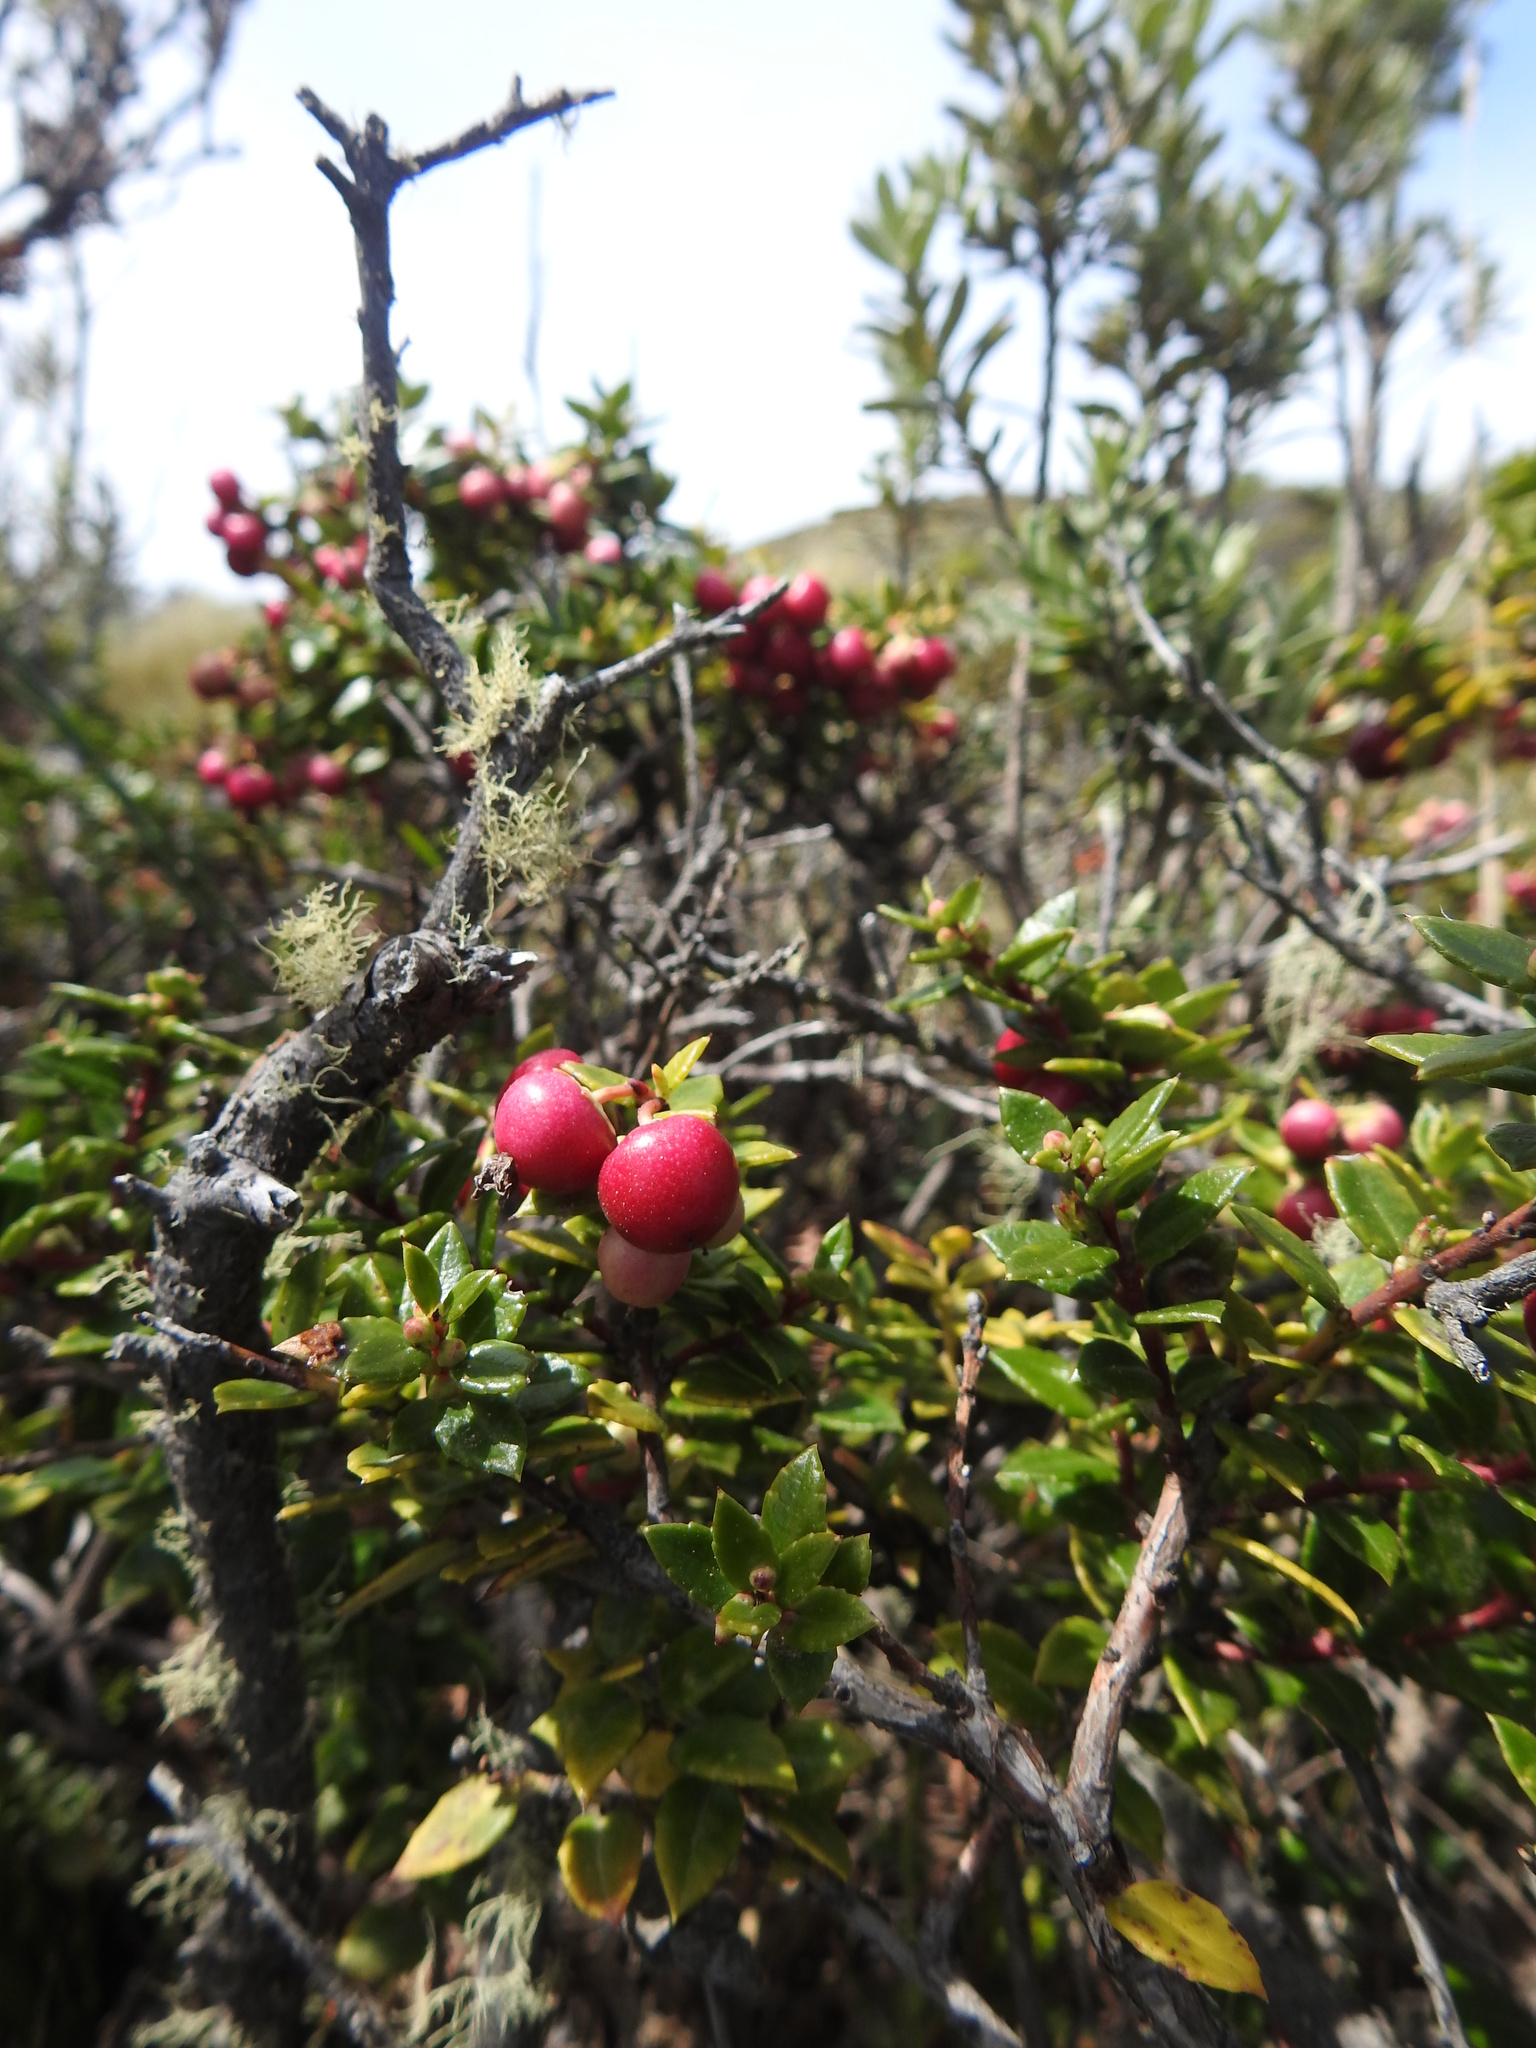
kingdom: Plantae
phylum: Tracheophyta
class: Magnoliopsida
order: Ericales
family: Ericaceae
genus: Gaultheria
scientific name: Gaultheria mucronata
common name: Prickly heath
